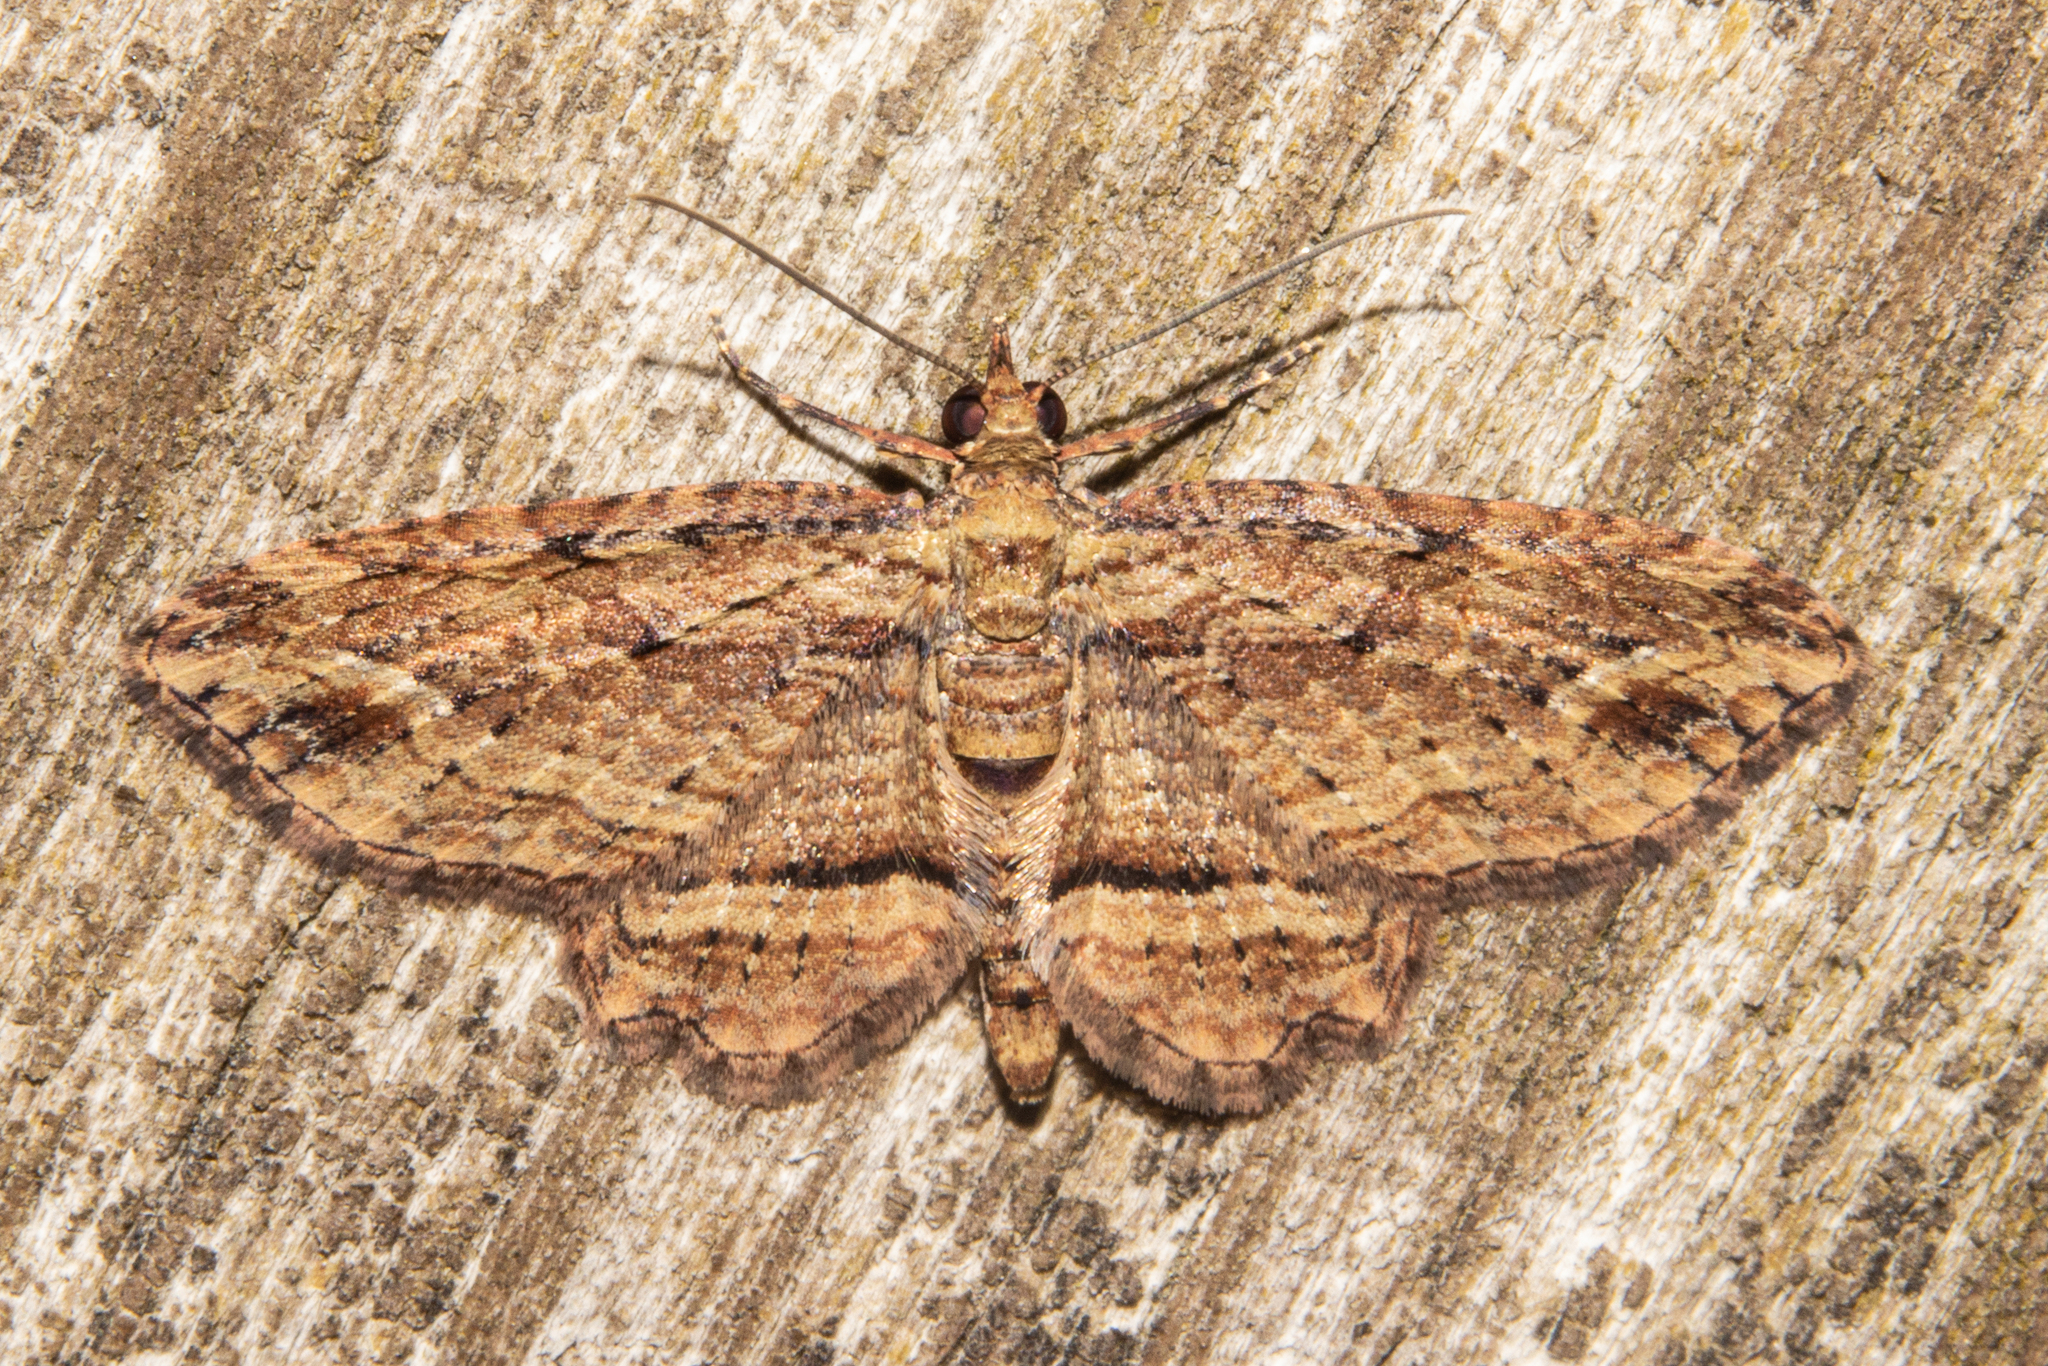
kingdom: Animalia
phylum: Arthropoda
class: Insecta
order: Lepidoptera
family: Geometridae
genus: Chloroclystis
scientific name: Chloroclystis filata
